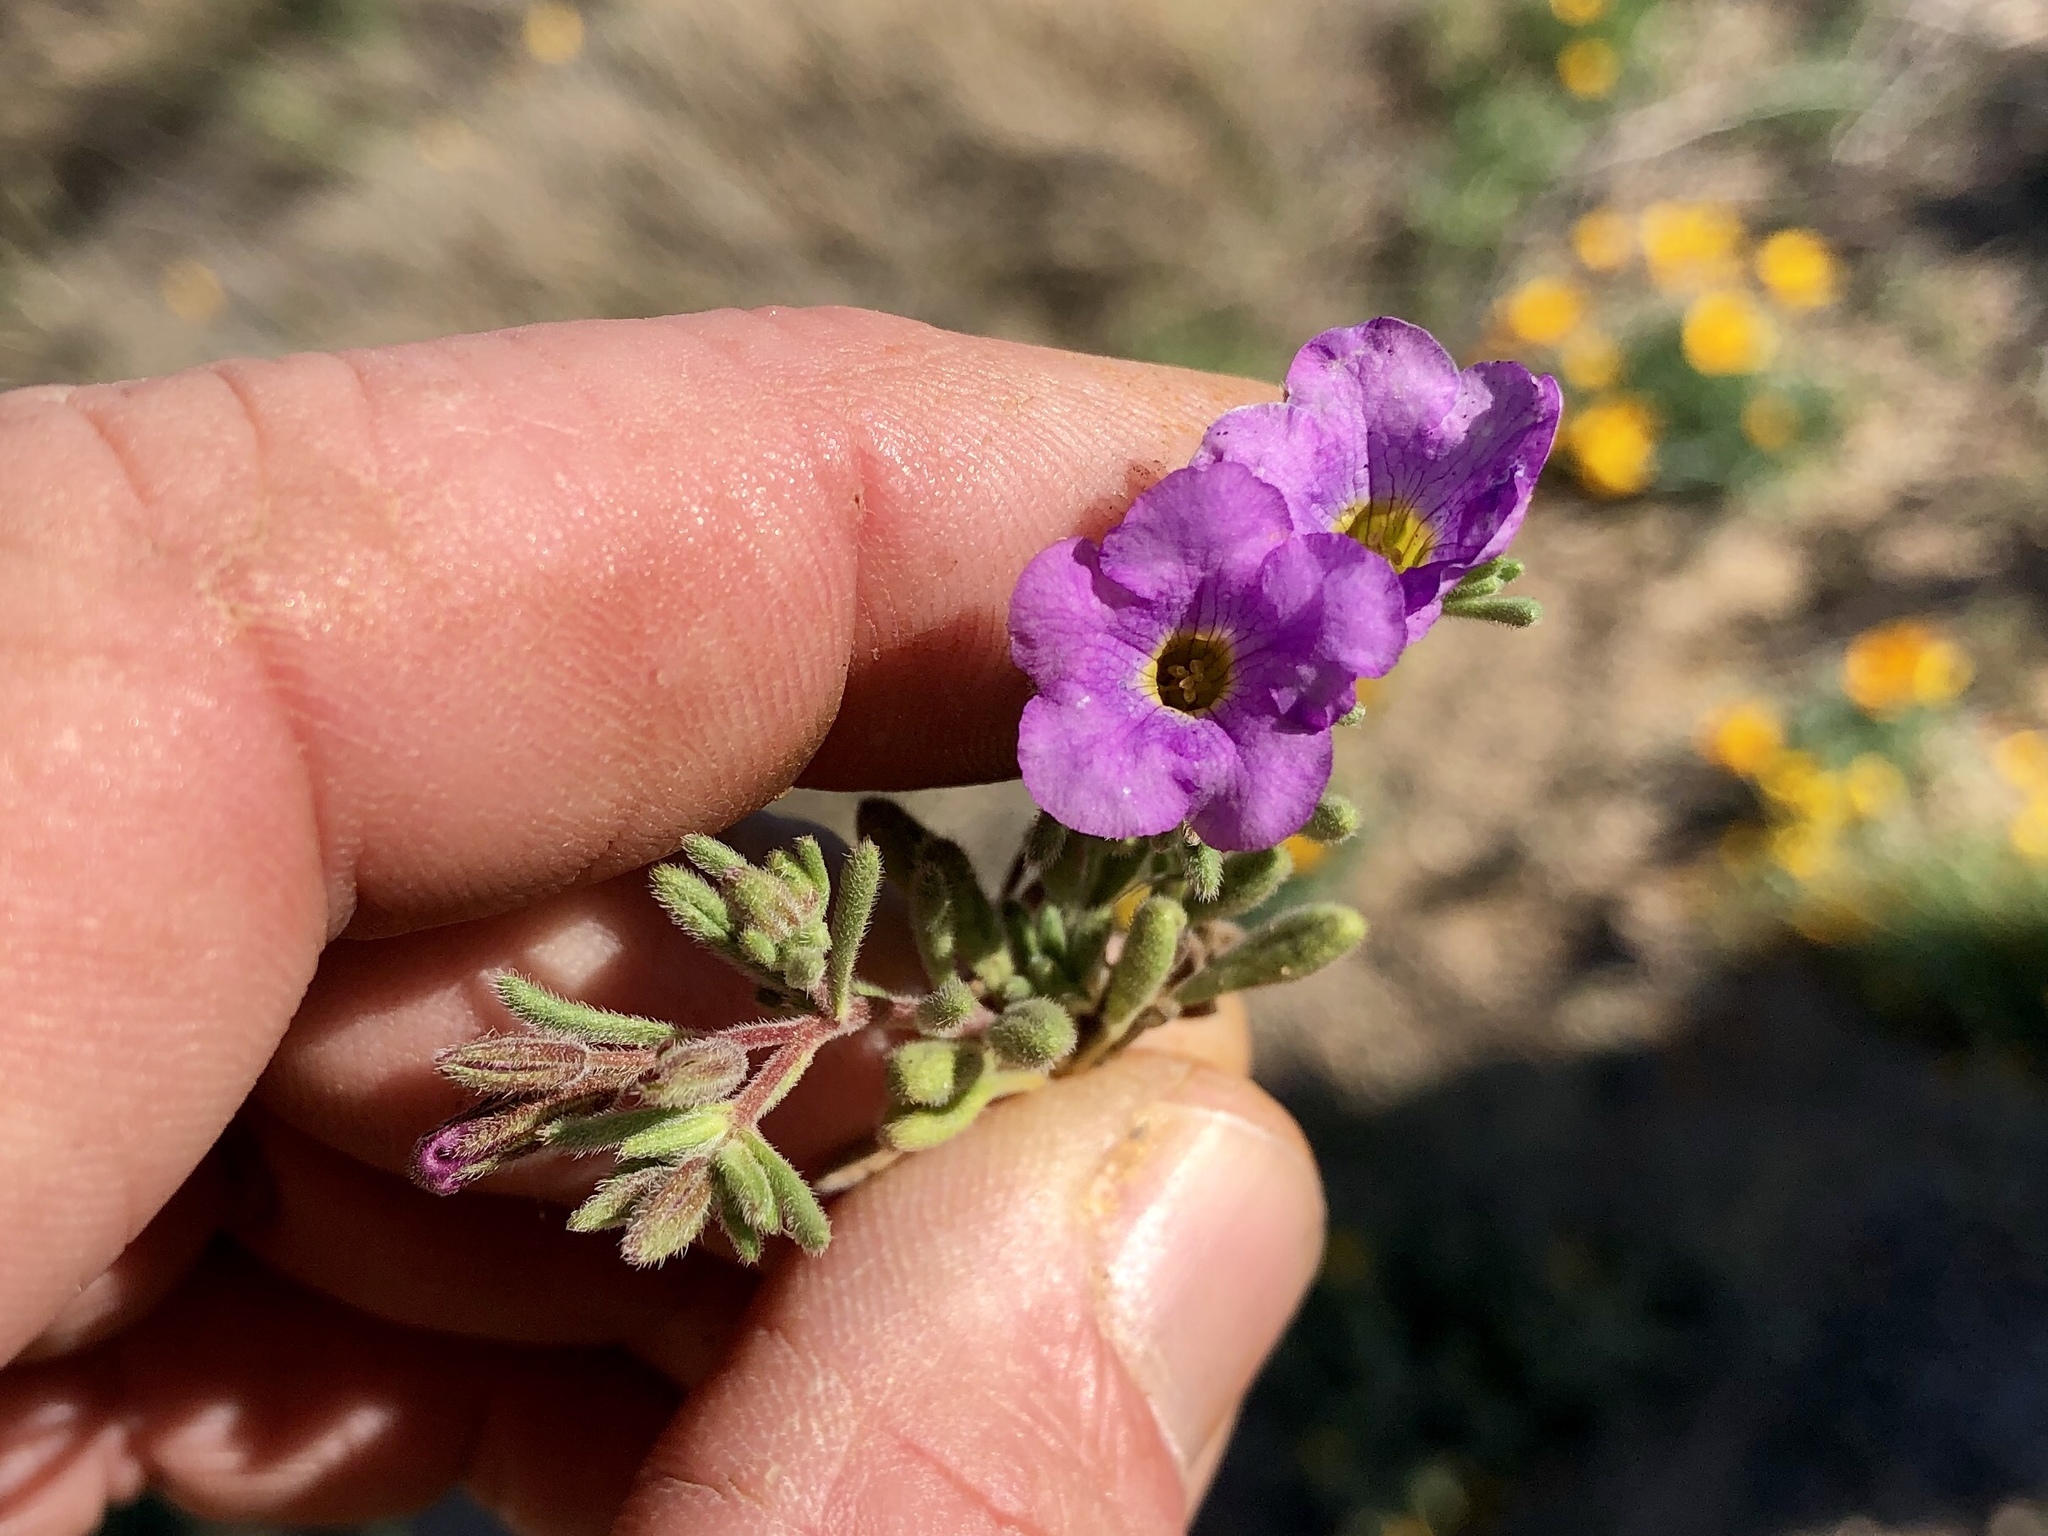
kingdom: Plantae
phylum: Tracheophyta
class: Magnoliopsida
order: Boraginales
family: Namaceae
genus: Nama
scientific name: Nama hispida
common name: Bristly nama
